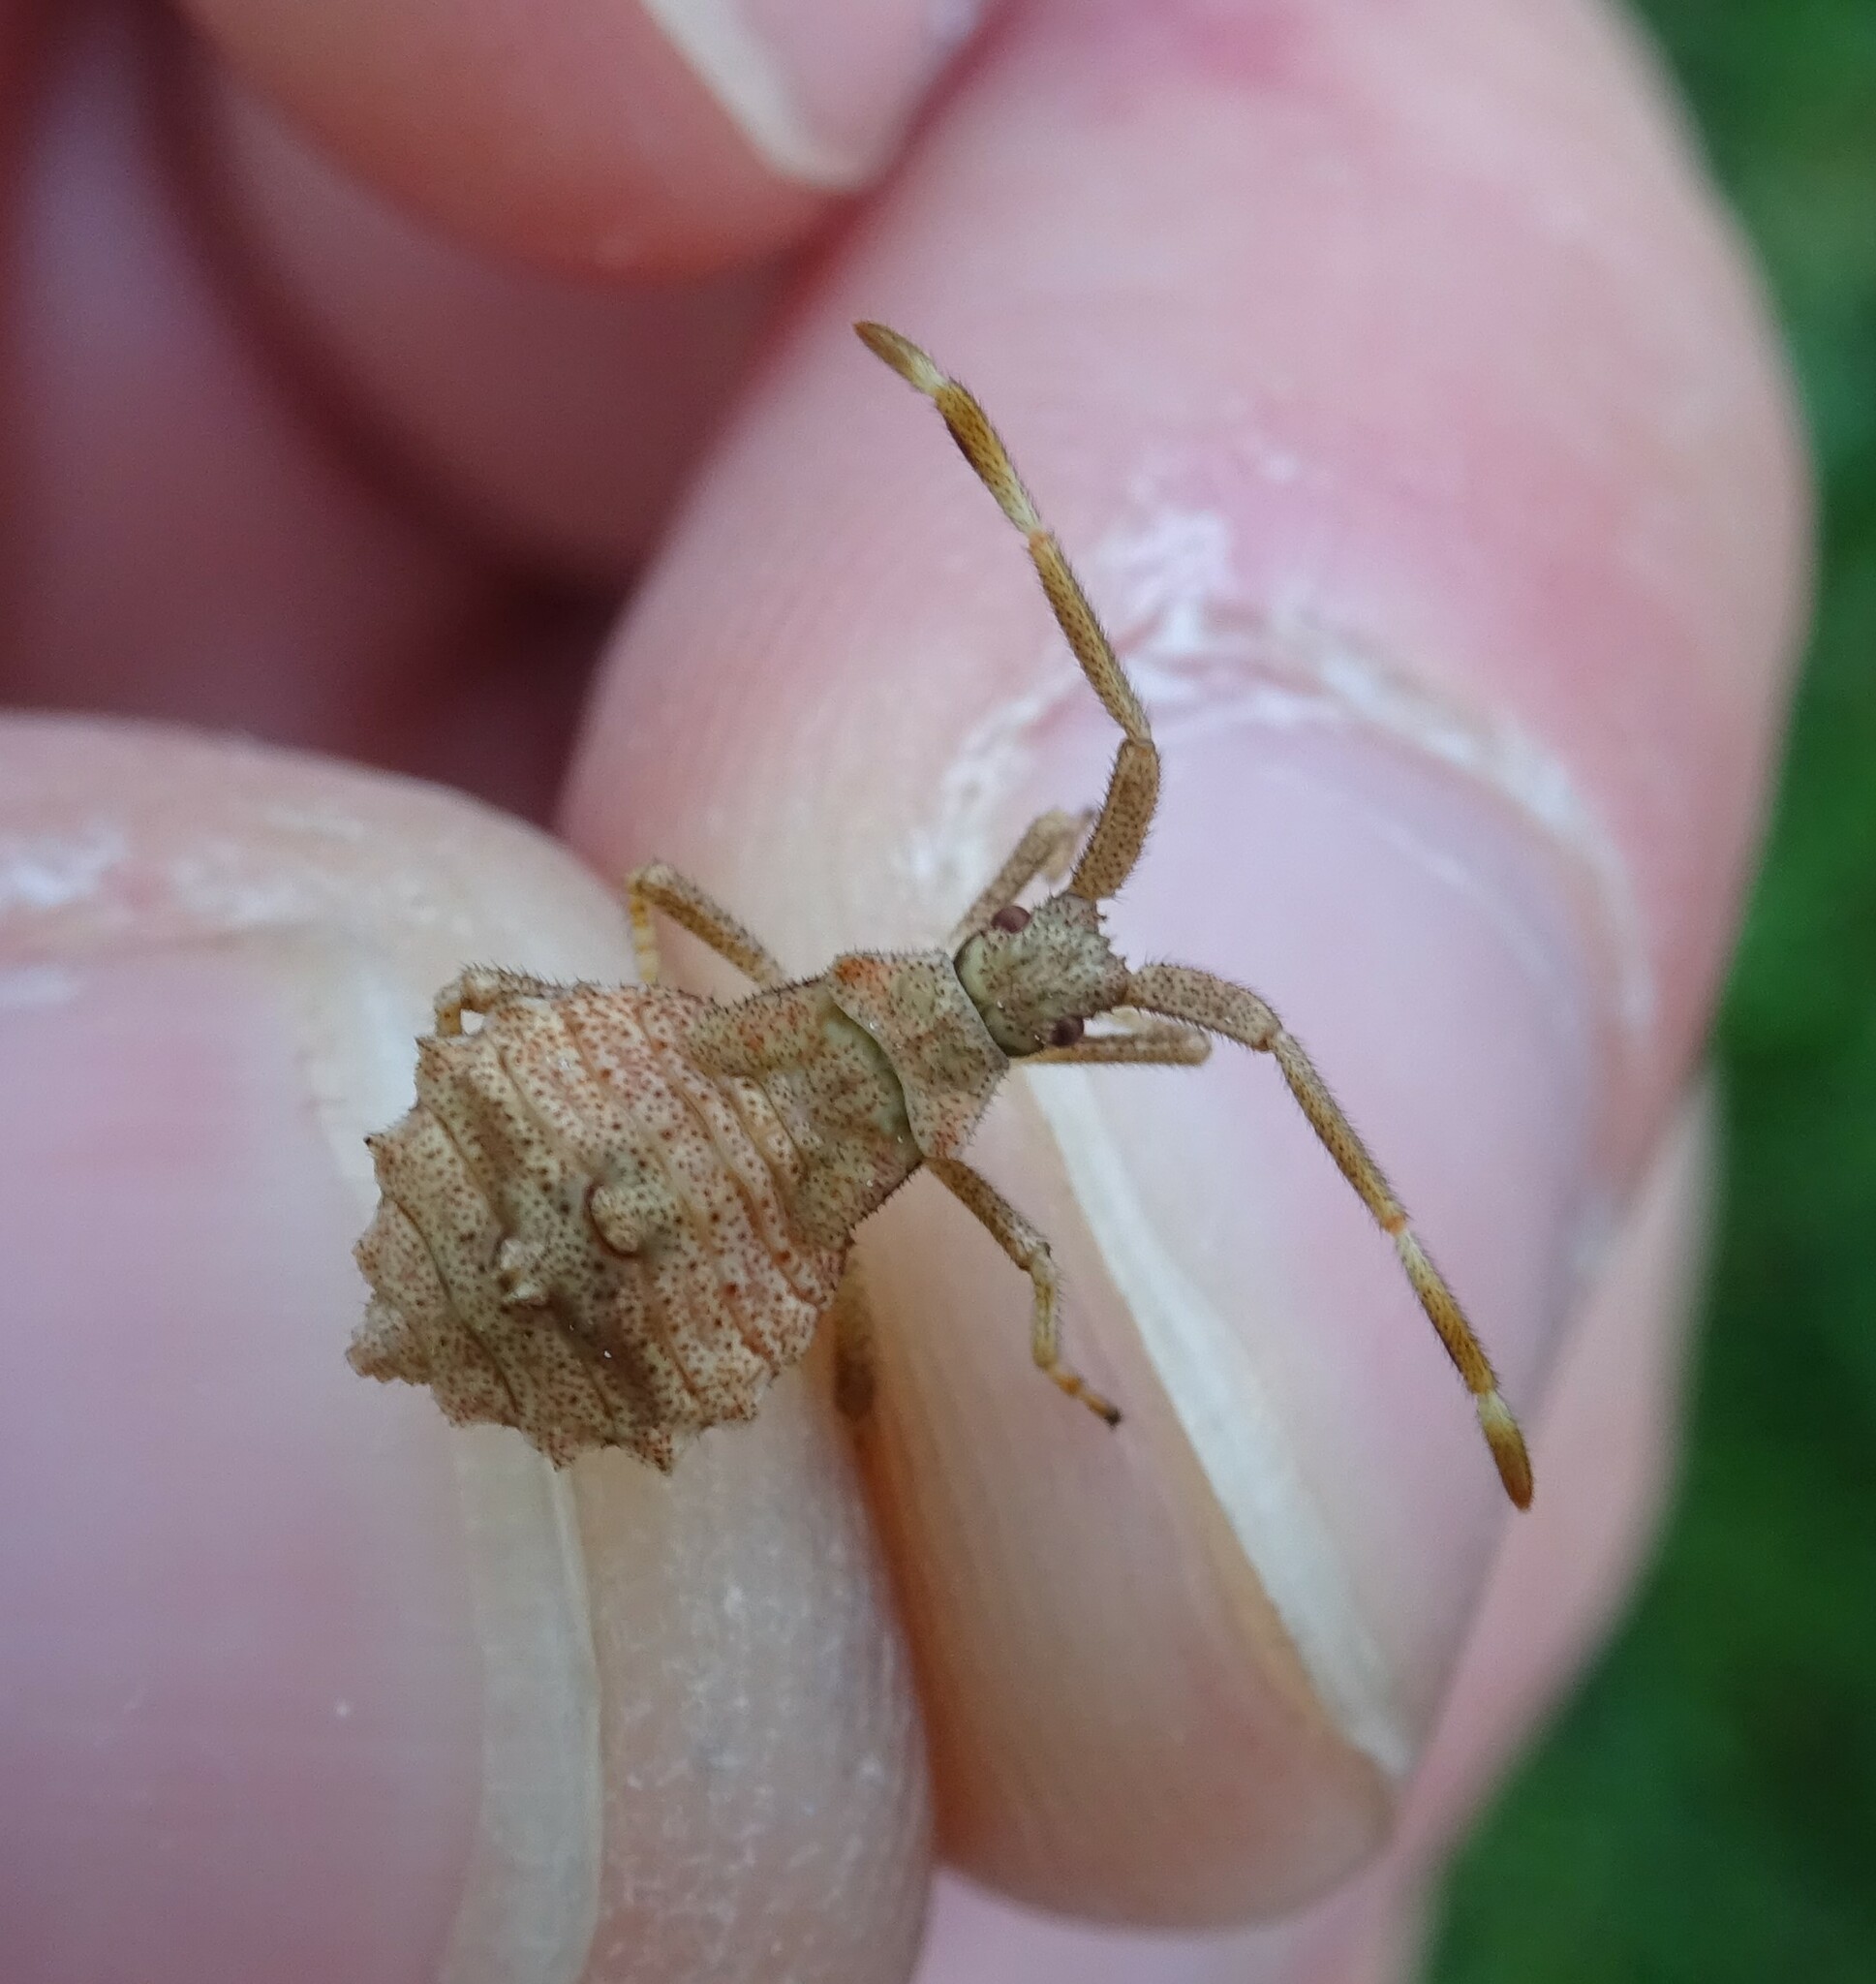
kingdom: Animalia
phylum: Arthropoda
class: Insecta
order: Hemiptera
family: Coreidae
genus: Coreus
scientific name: Coreus marginatus
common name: Dock bug
